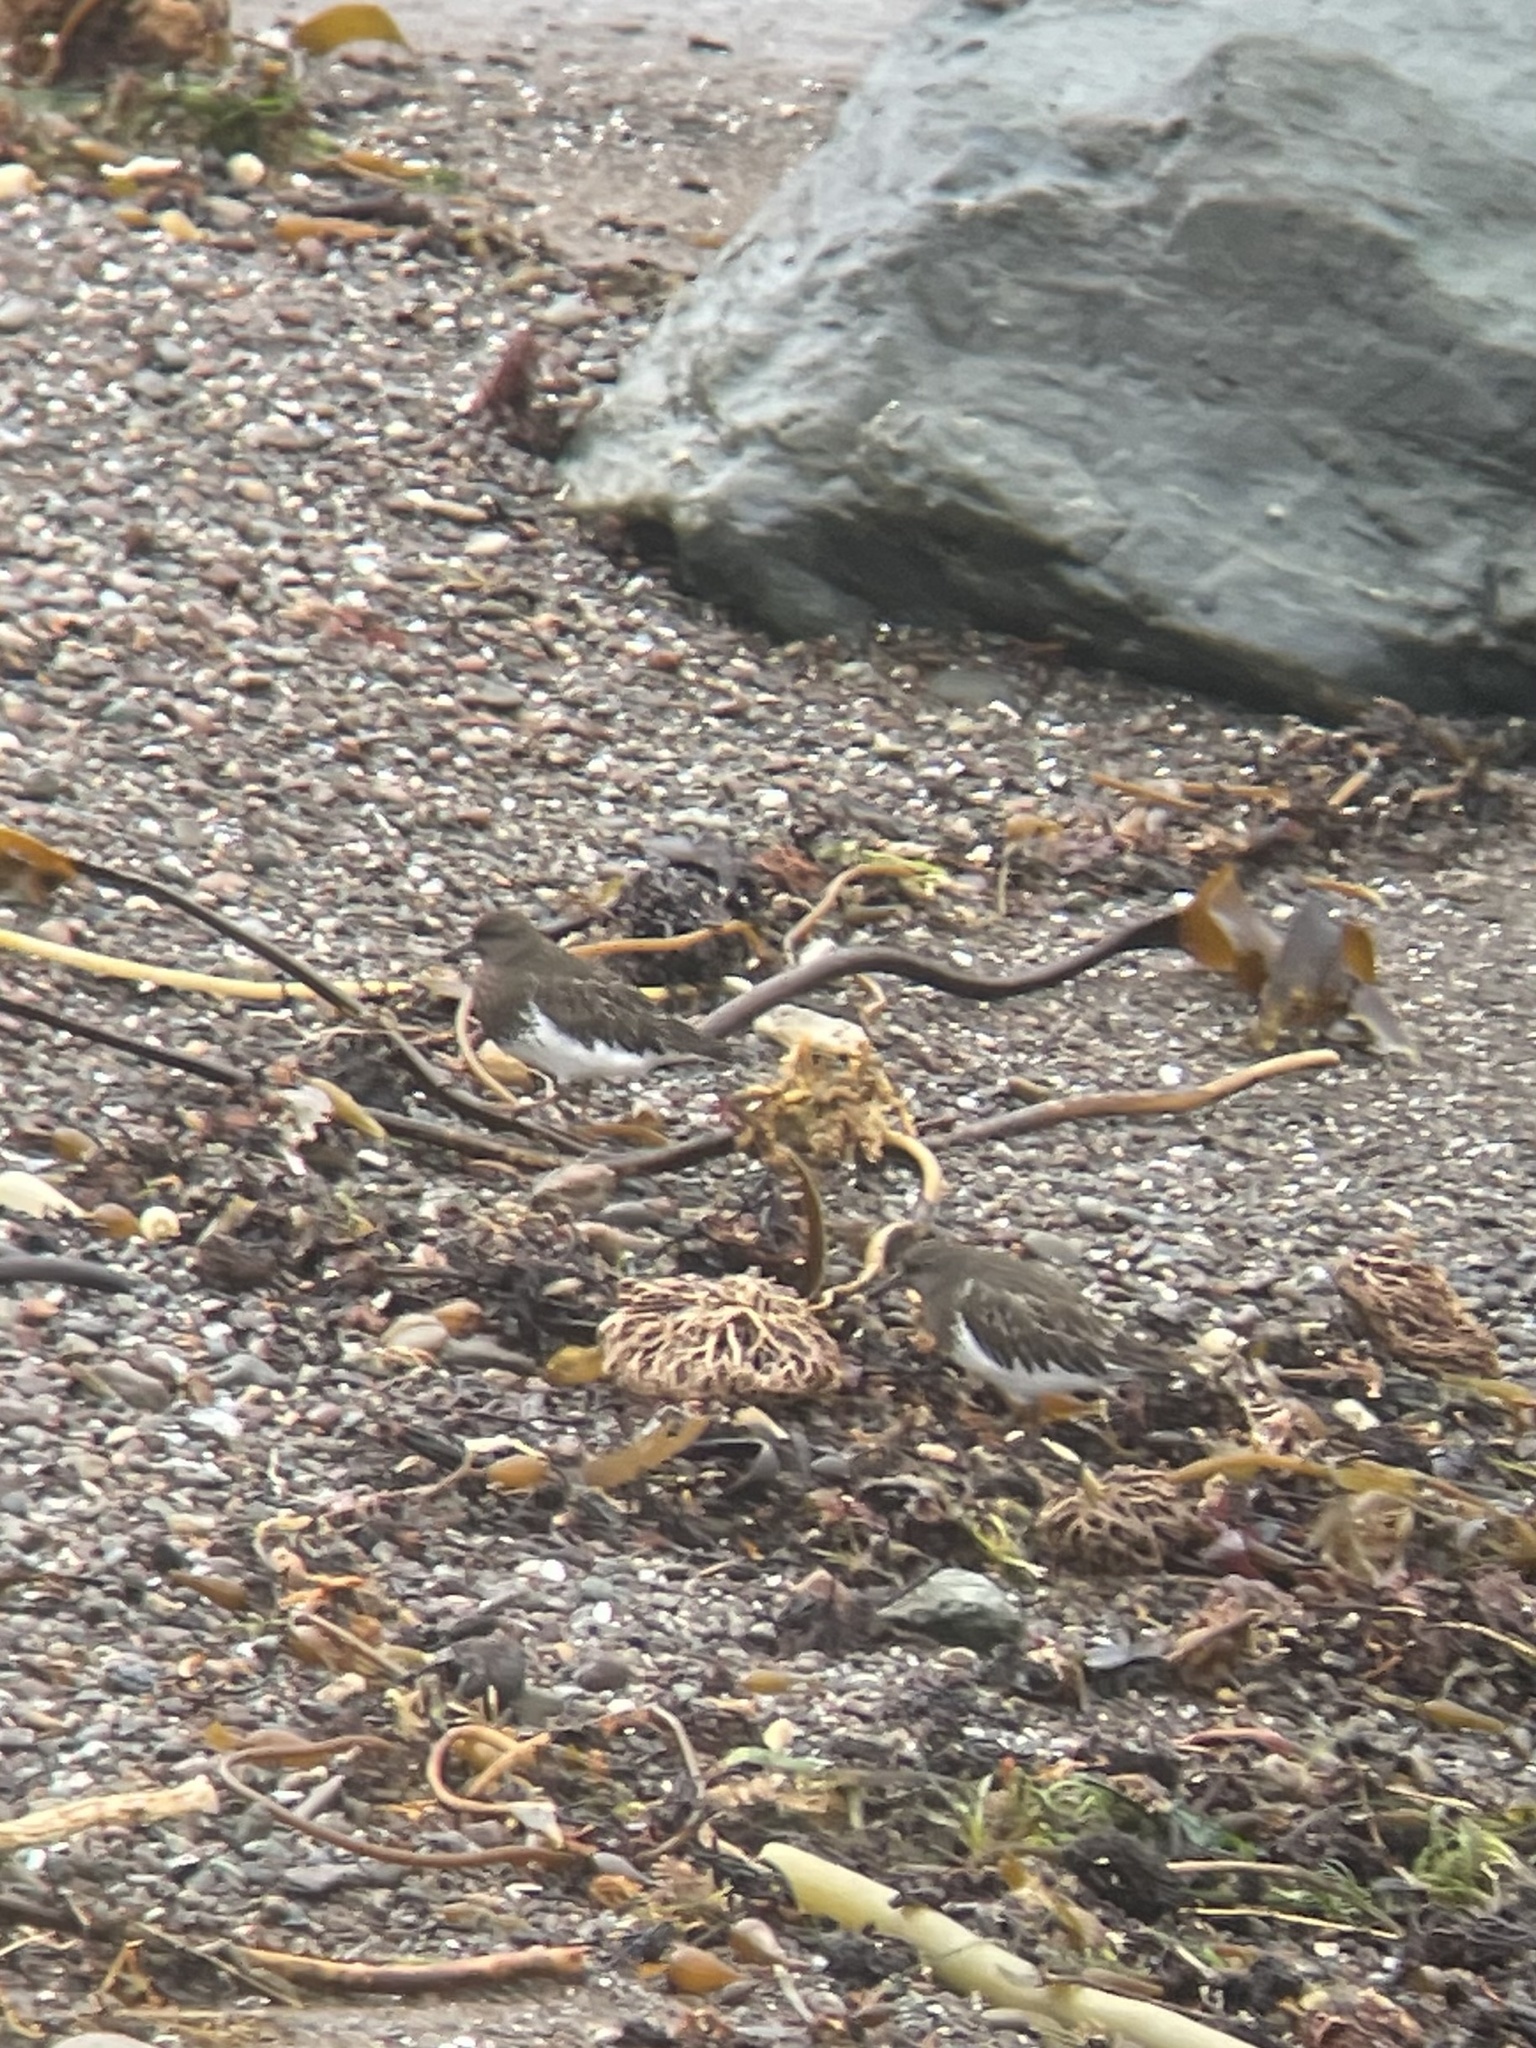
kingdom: Animalia
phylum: Chordata
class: Aves
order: Charadriiformes
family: Scolopacidae
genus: Arenaria
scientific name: Arenaria melanocephala
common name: Black turnstone
